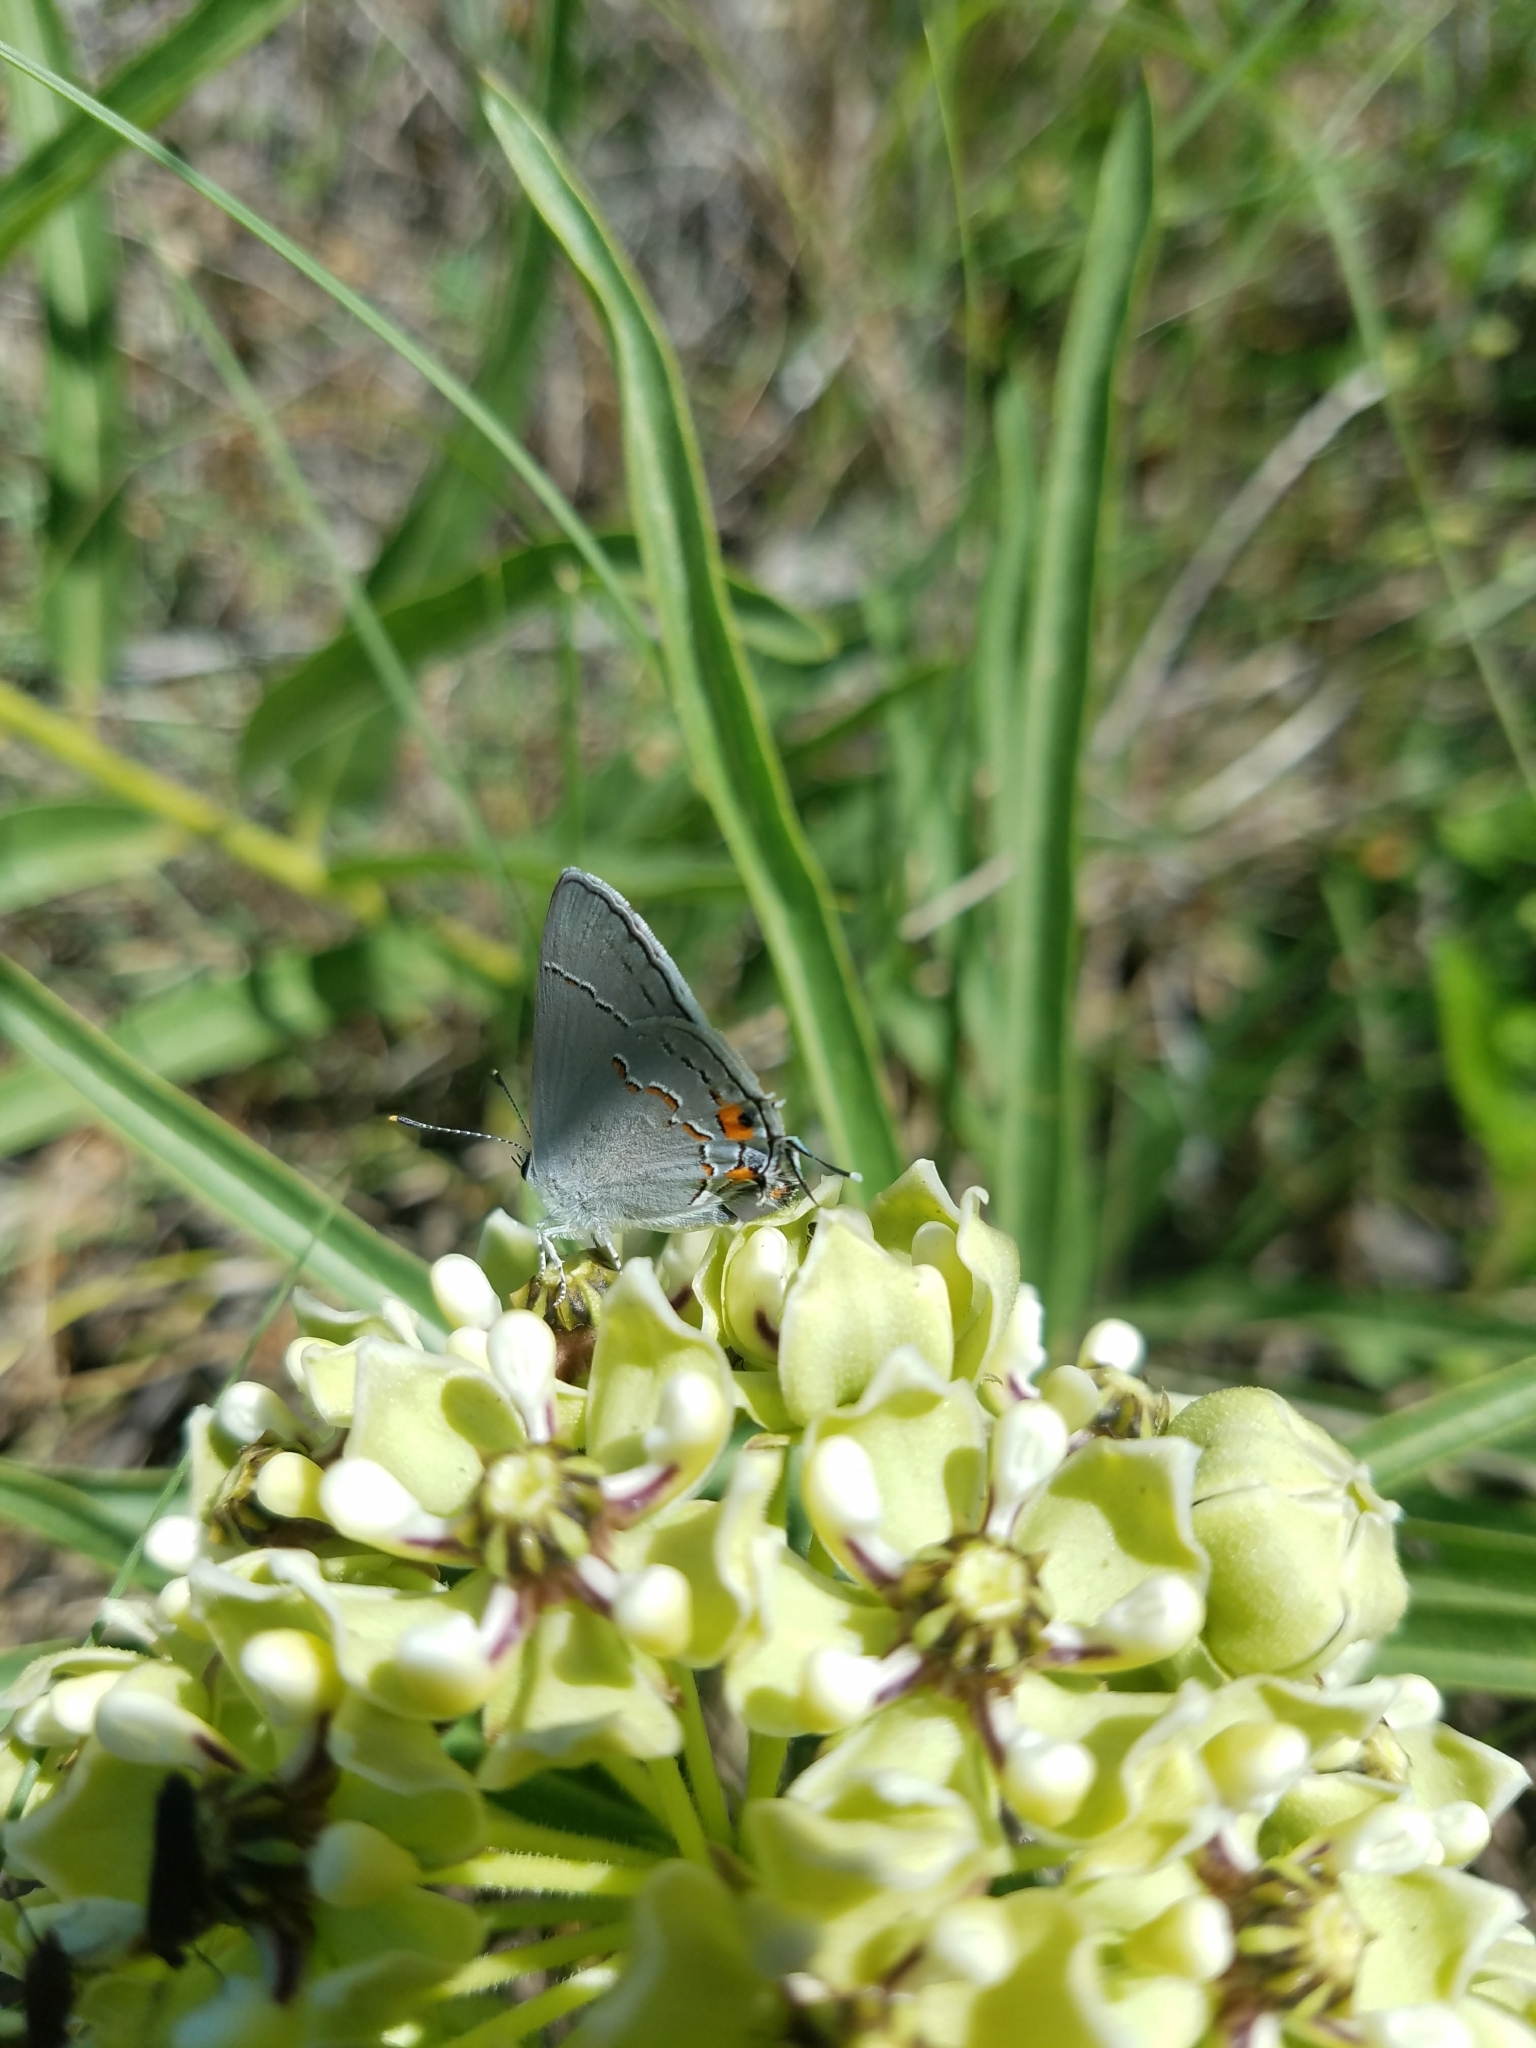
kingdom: Animalia
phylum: Arthropoda
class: Insecta
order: Lepidoptera
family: Lycaenidae
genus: Strymon
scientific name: Strymon melinus
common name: Gray hairstreak
